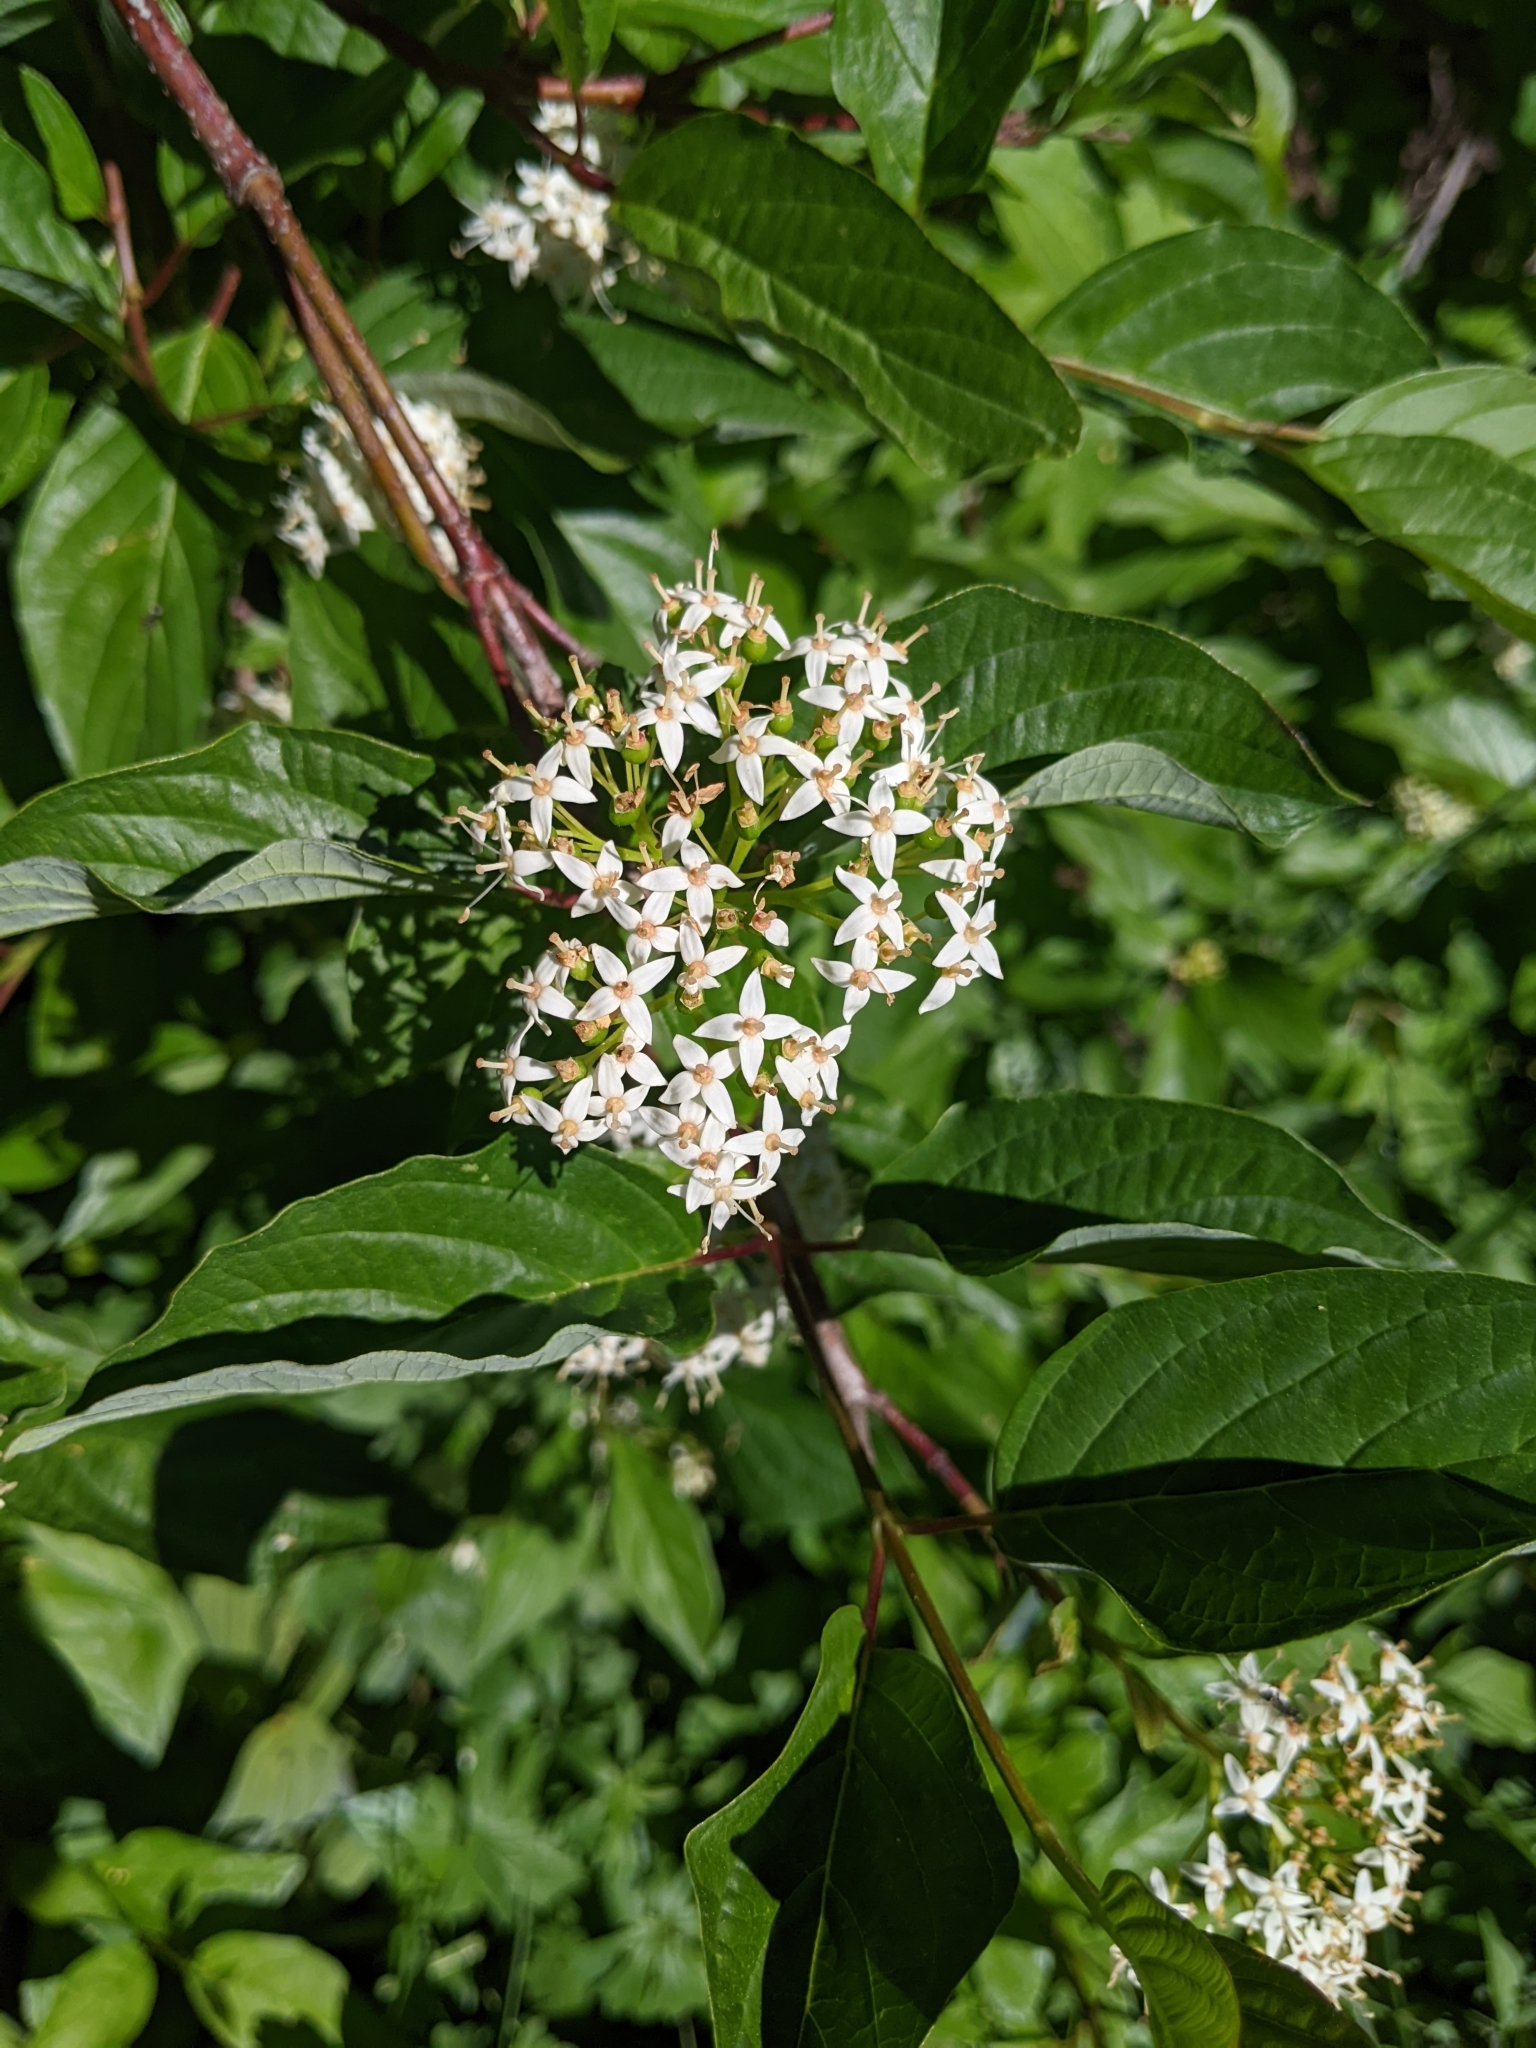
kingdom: Plantae
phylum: Tracheophyta
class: Magnoliopsida
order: Cornales
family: Cornaceae
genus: Cornus
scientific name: Cornus sericea
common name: Red-osier dogwood
